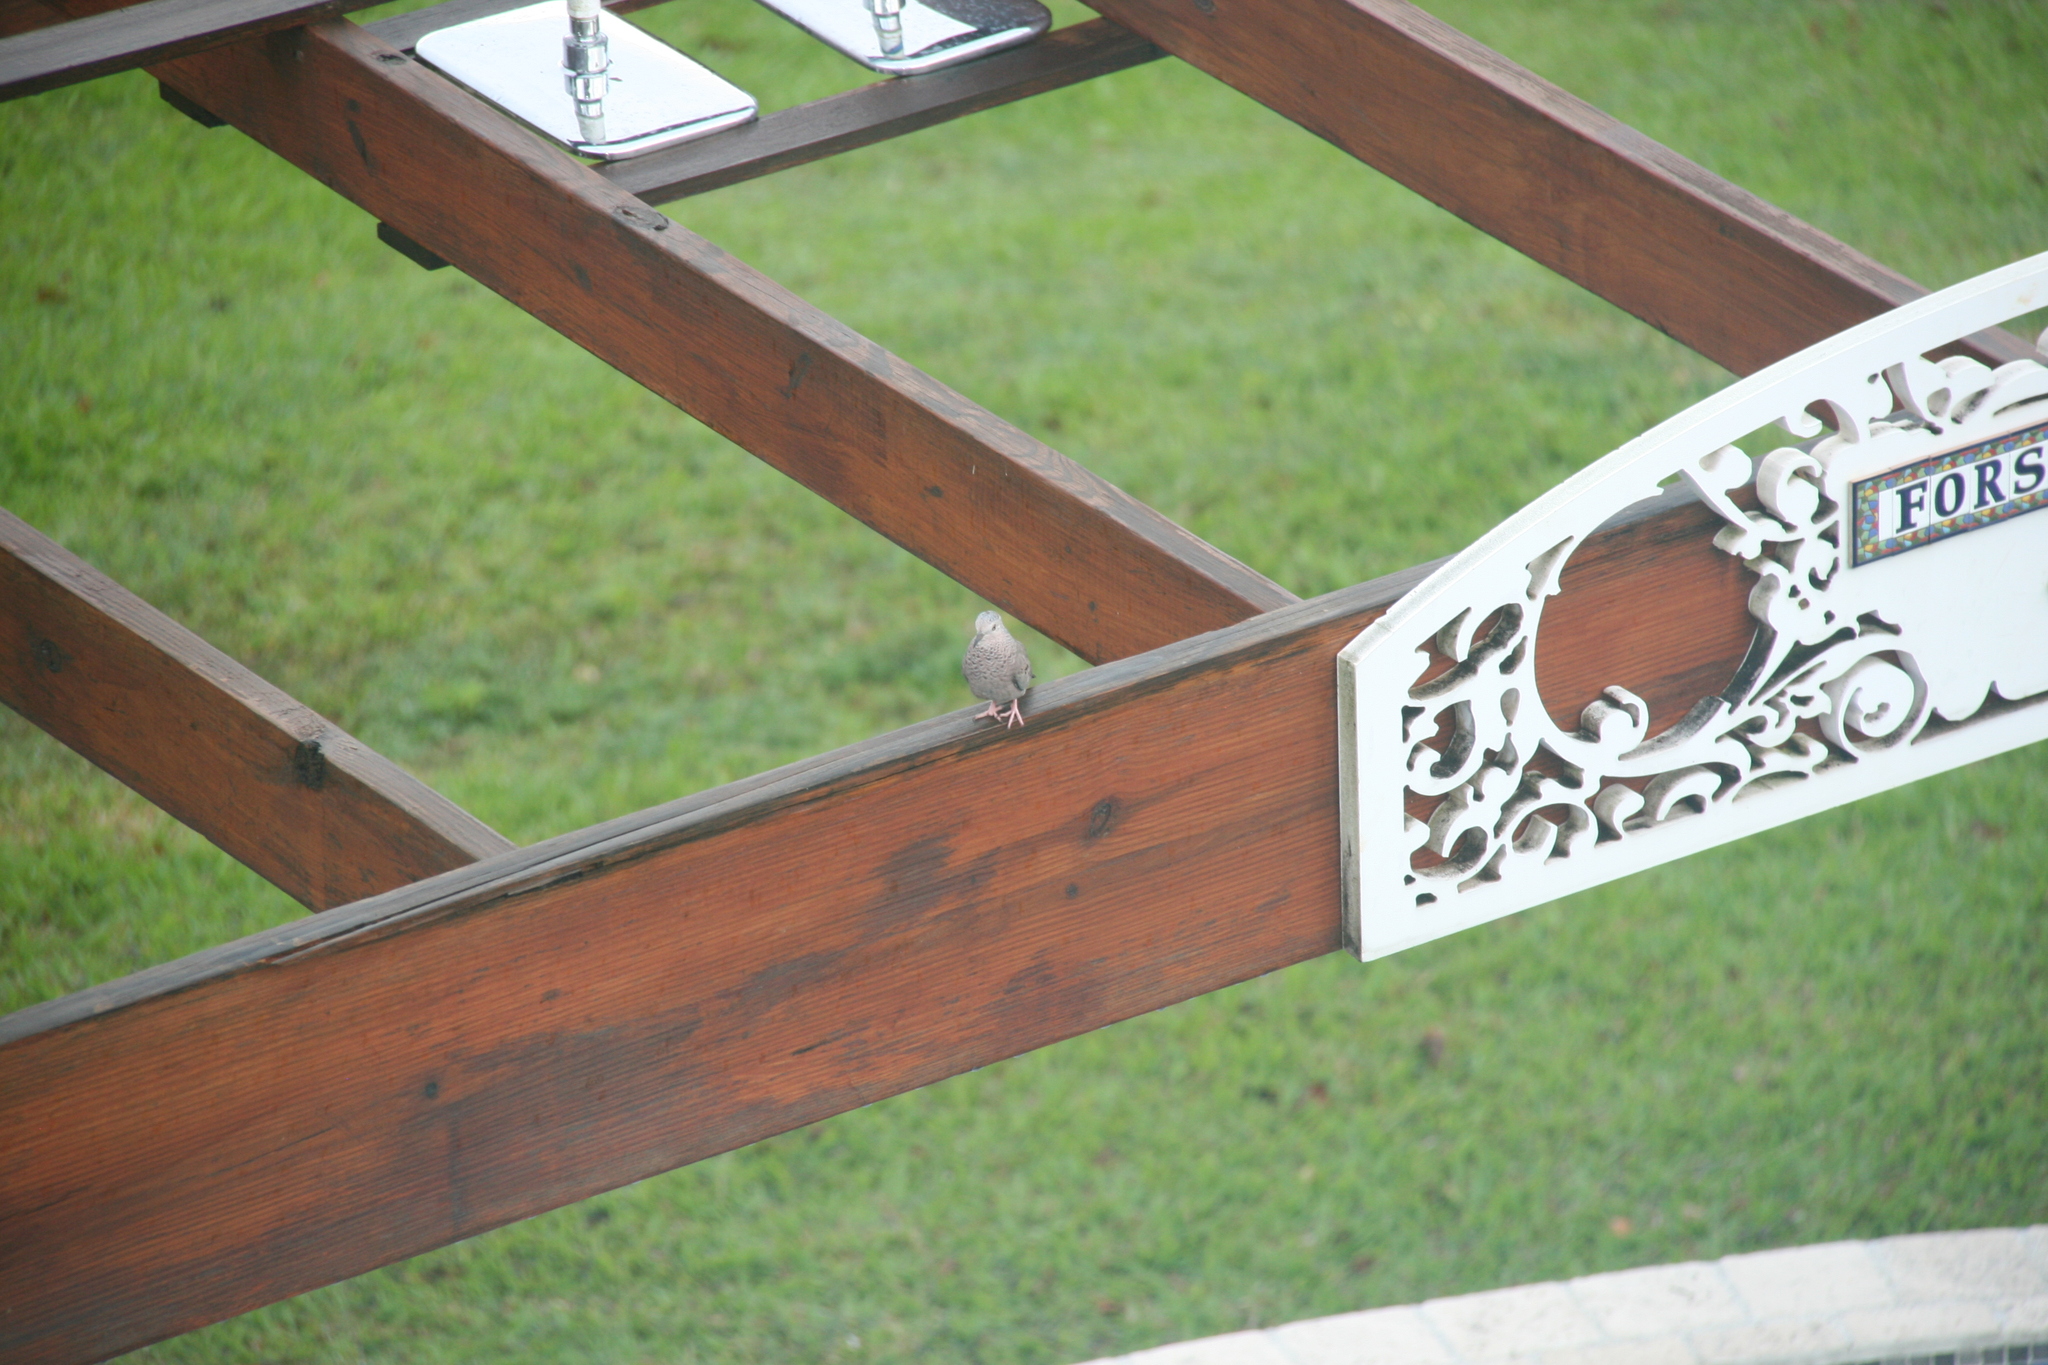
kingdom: Animalia
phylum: Chordata
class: Aves
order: Columbiformes
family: Columbidae
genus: Columbina
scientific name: Columbina passerina
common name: Common ground-dove
